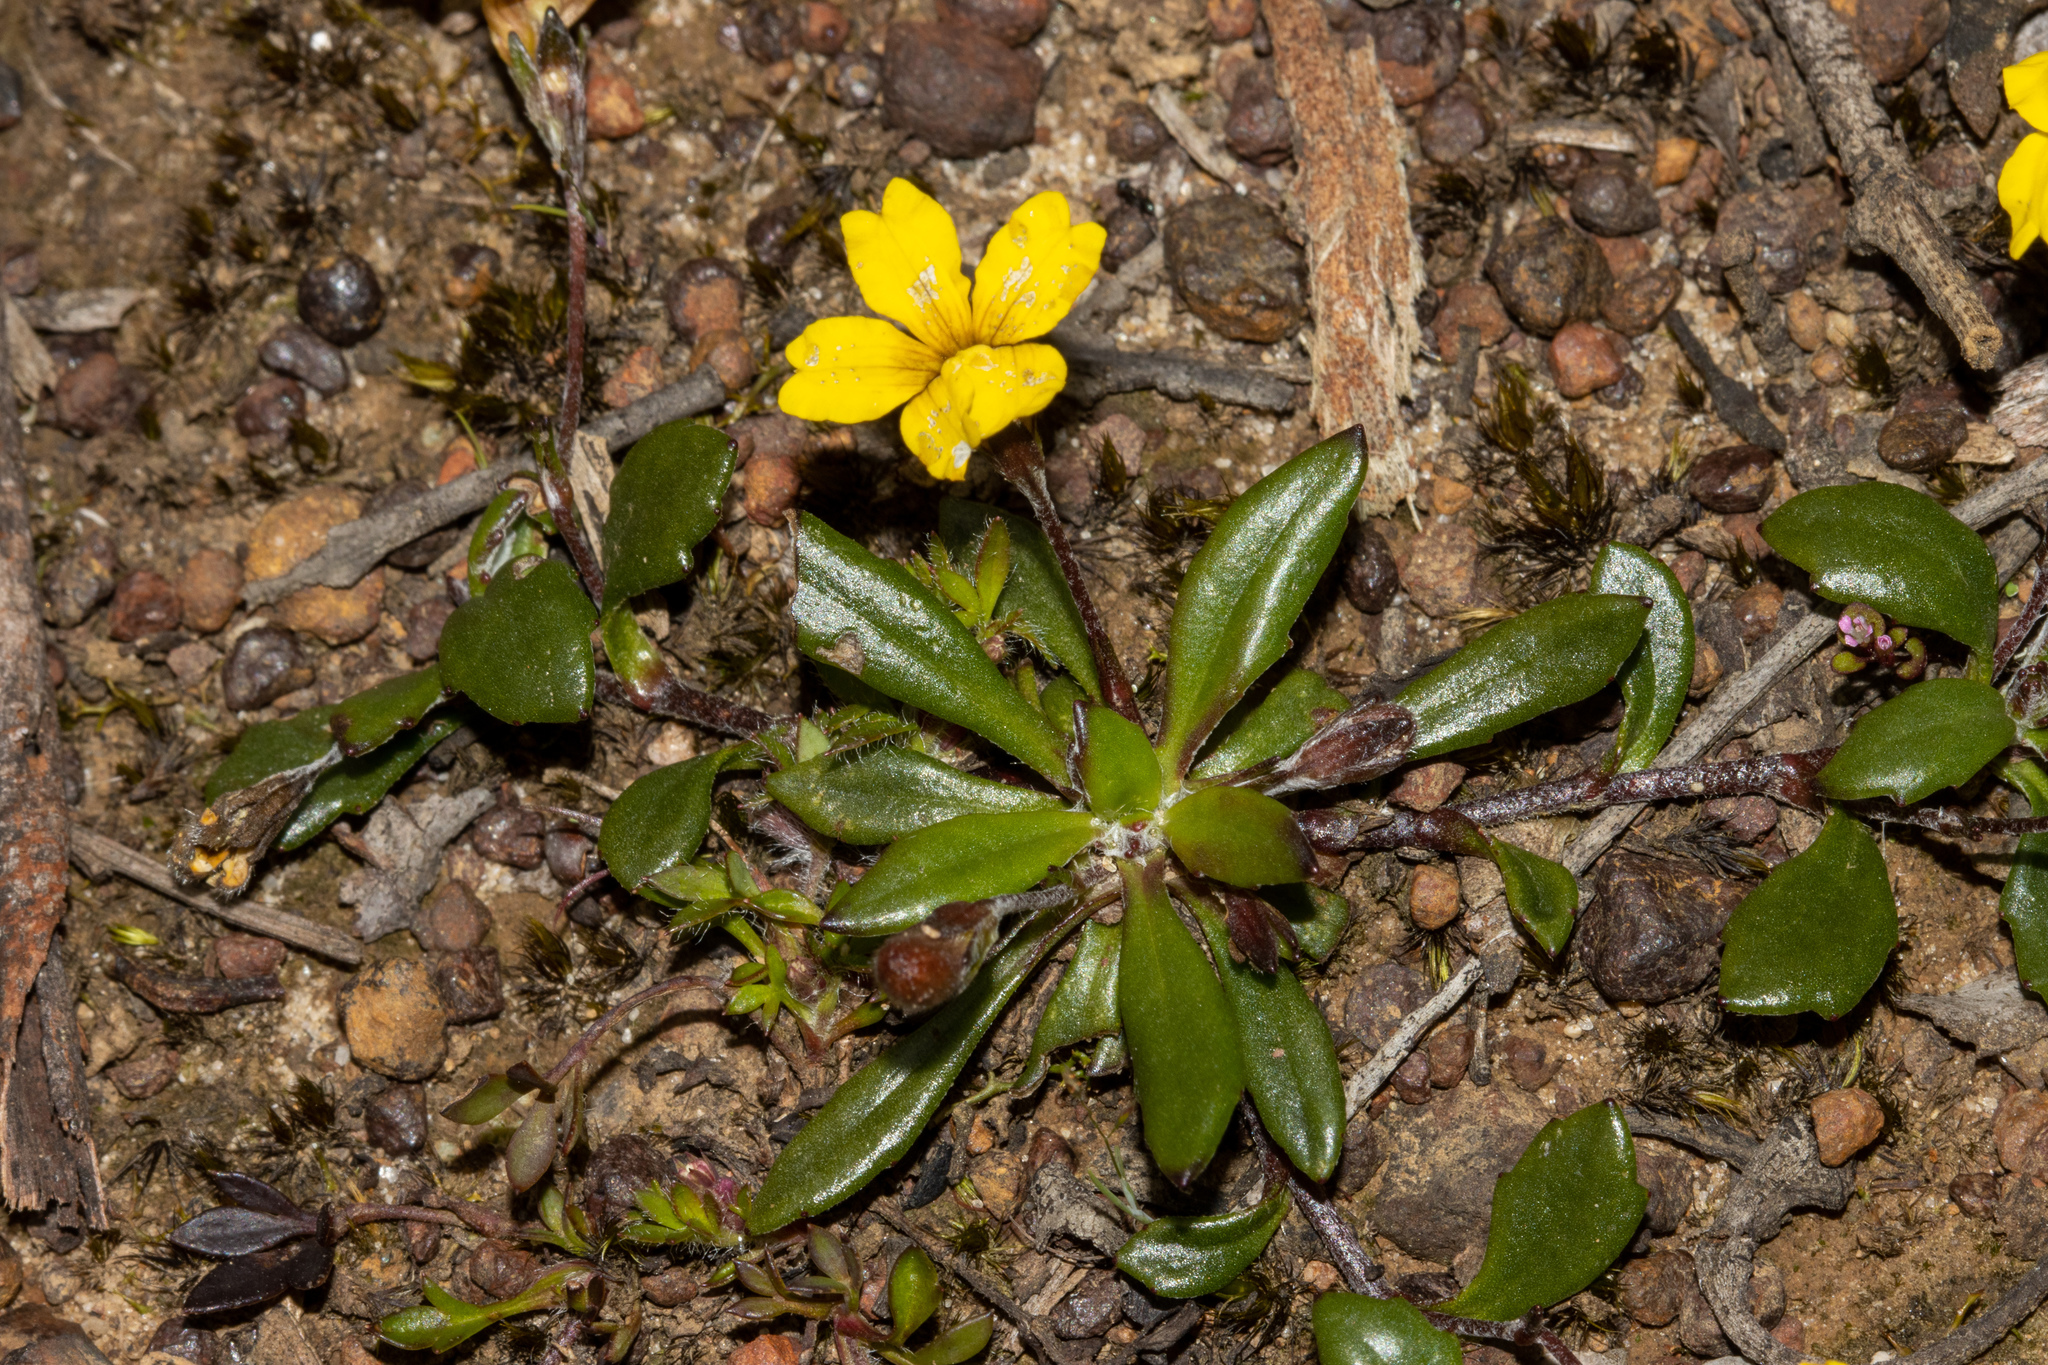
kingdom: Plantae
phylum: Tracheophyta
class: Magnoliopsida
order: Asterales
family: Goodeniaceae
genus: Goodenia
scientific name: Goodenia blackiana
